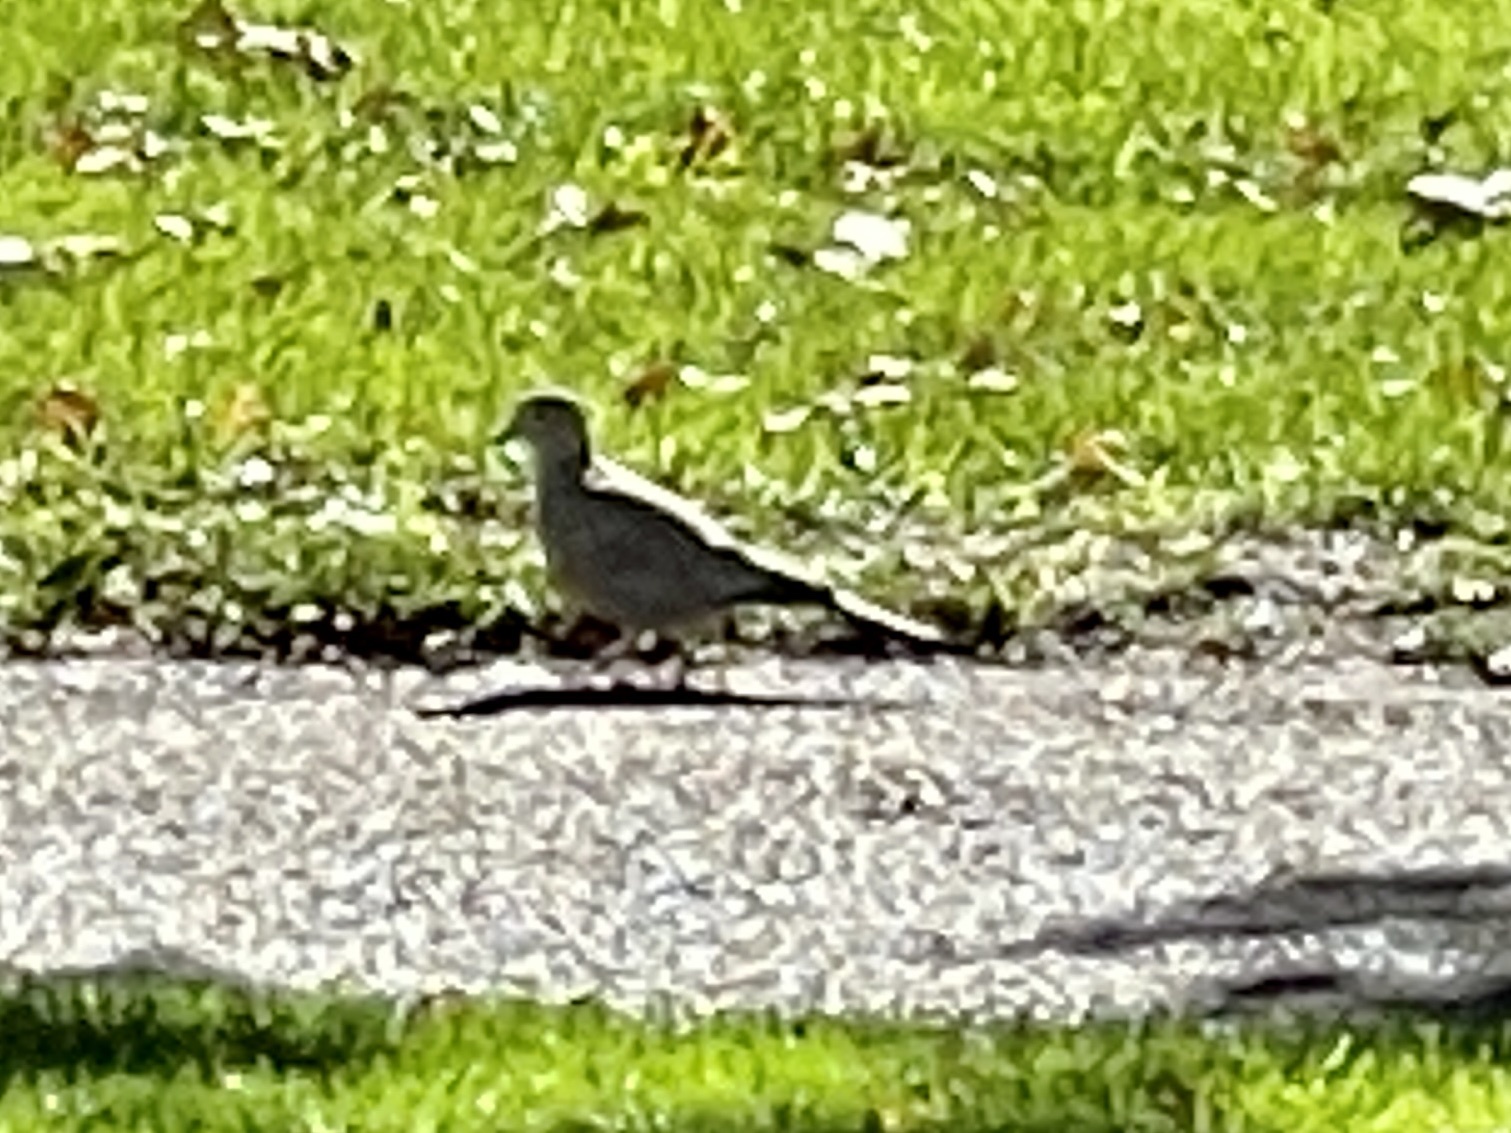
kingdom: Animalia
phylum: Chordata
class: Aves
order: Columbiformes
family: Columbidae
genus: Streptopelia
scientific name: Streptopelia decaocto
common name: Eurasian collared dove
